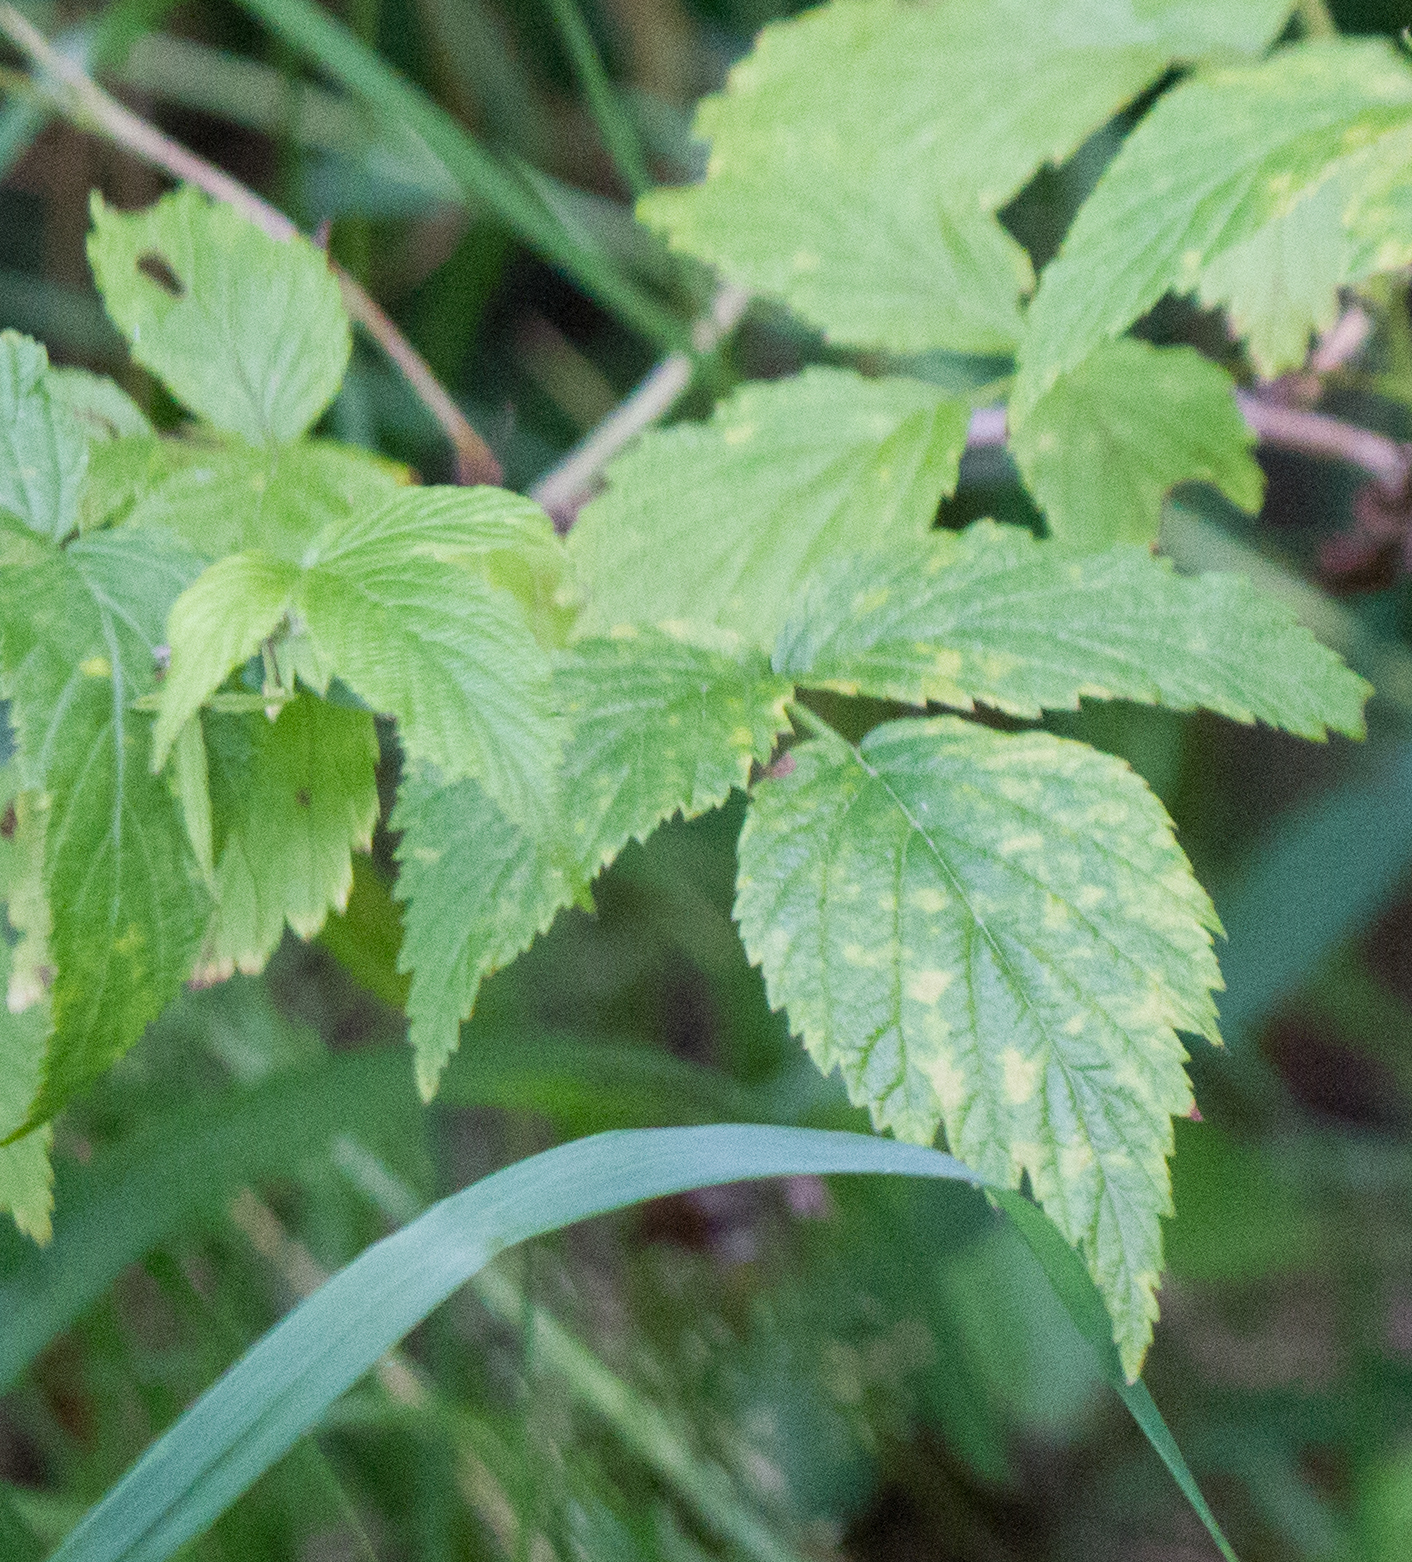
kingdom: Plantae
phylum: Tracheophyta
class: Magnoliopsida
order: Rosales
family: Rosaceae
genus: Rubus
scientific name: Rubus idaeus
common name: Raspberry
